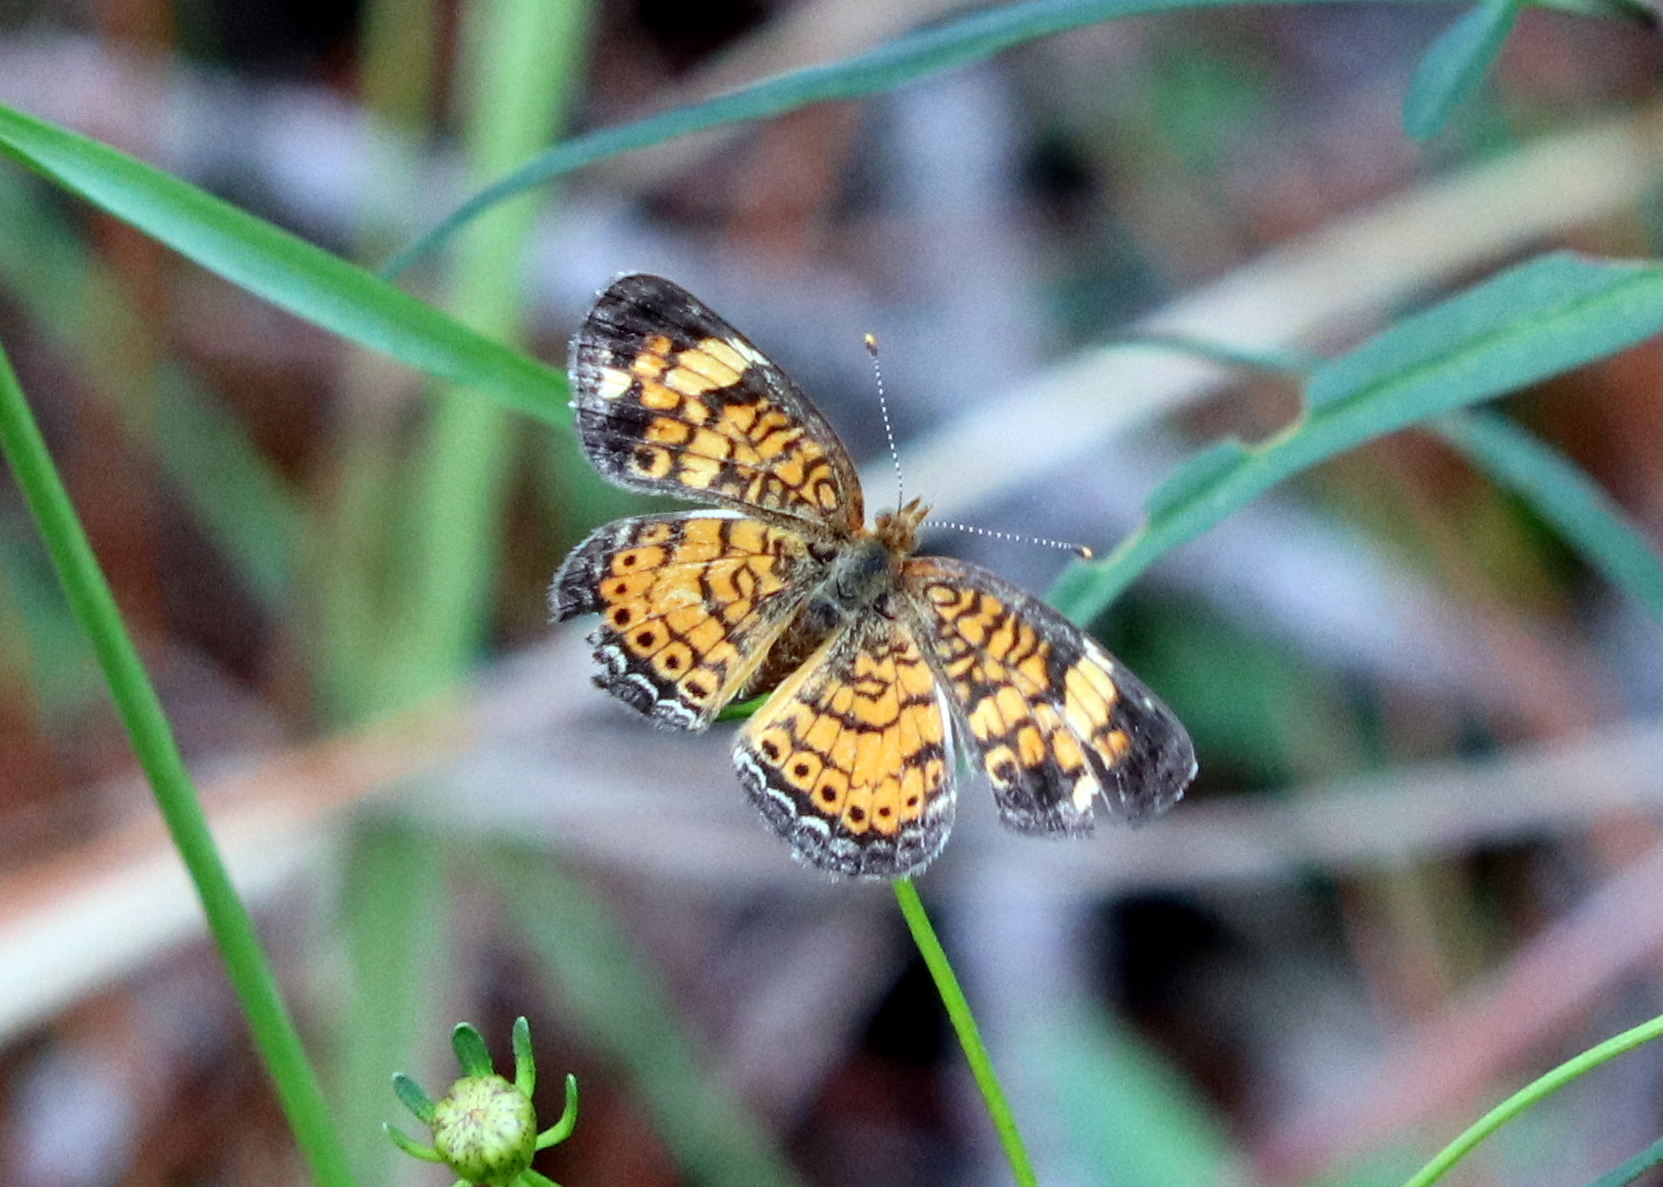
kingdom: Animalia
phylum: Arthropoda
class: Insecta
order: Lepidoptera
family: Nymphalidae
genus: Phyciodes
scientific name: Phyciodes tharos
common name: Pearl crescent
